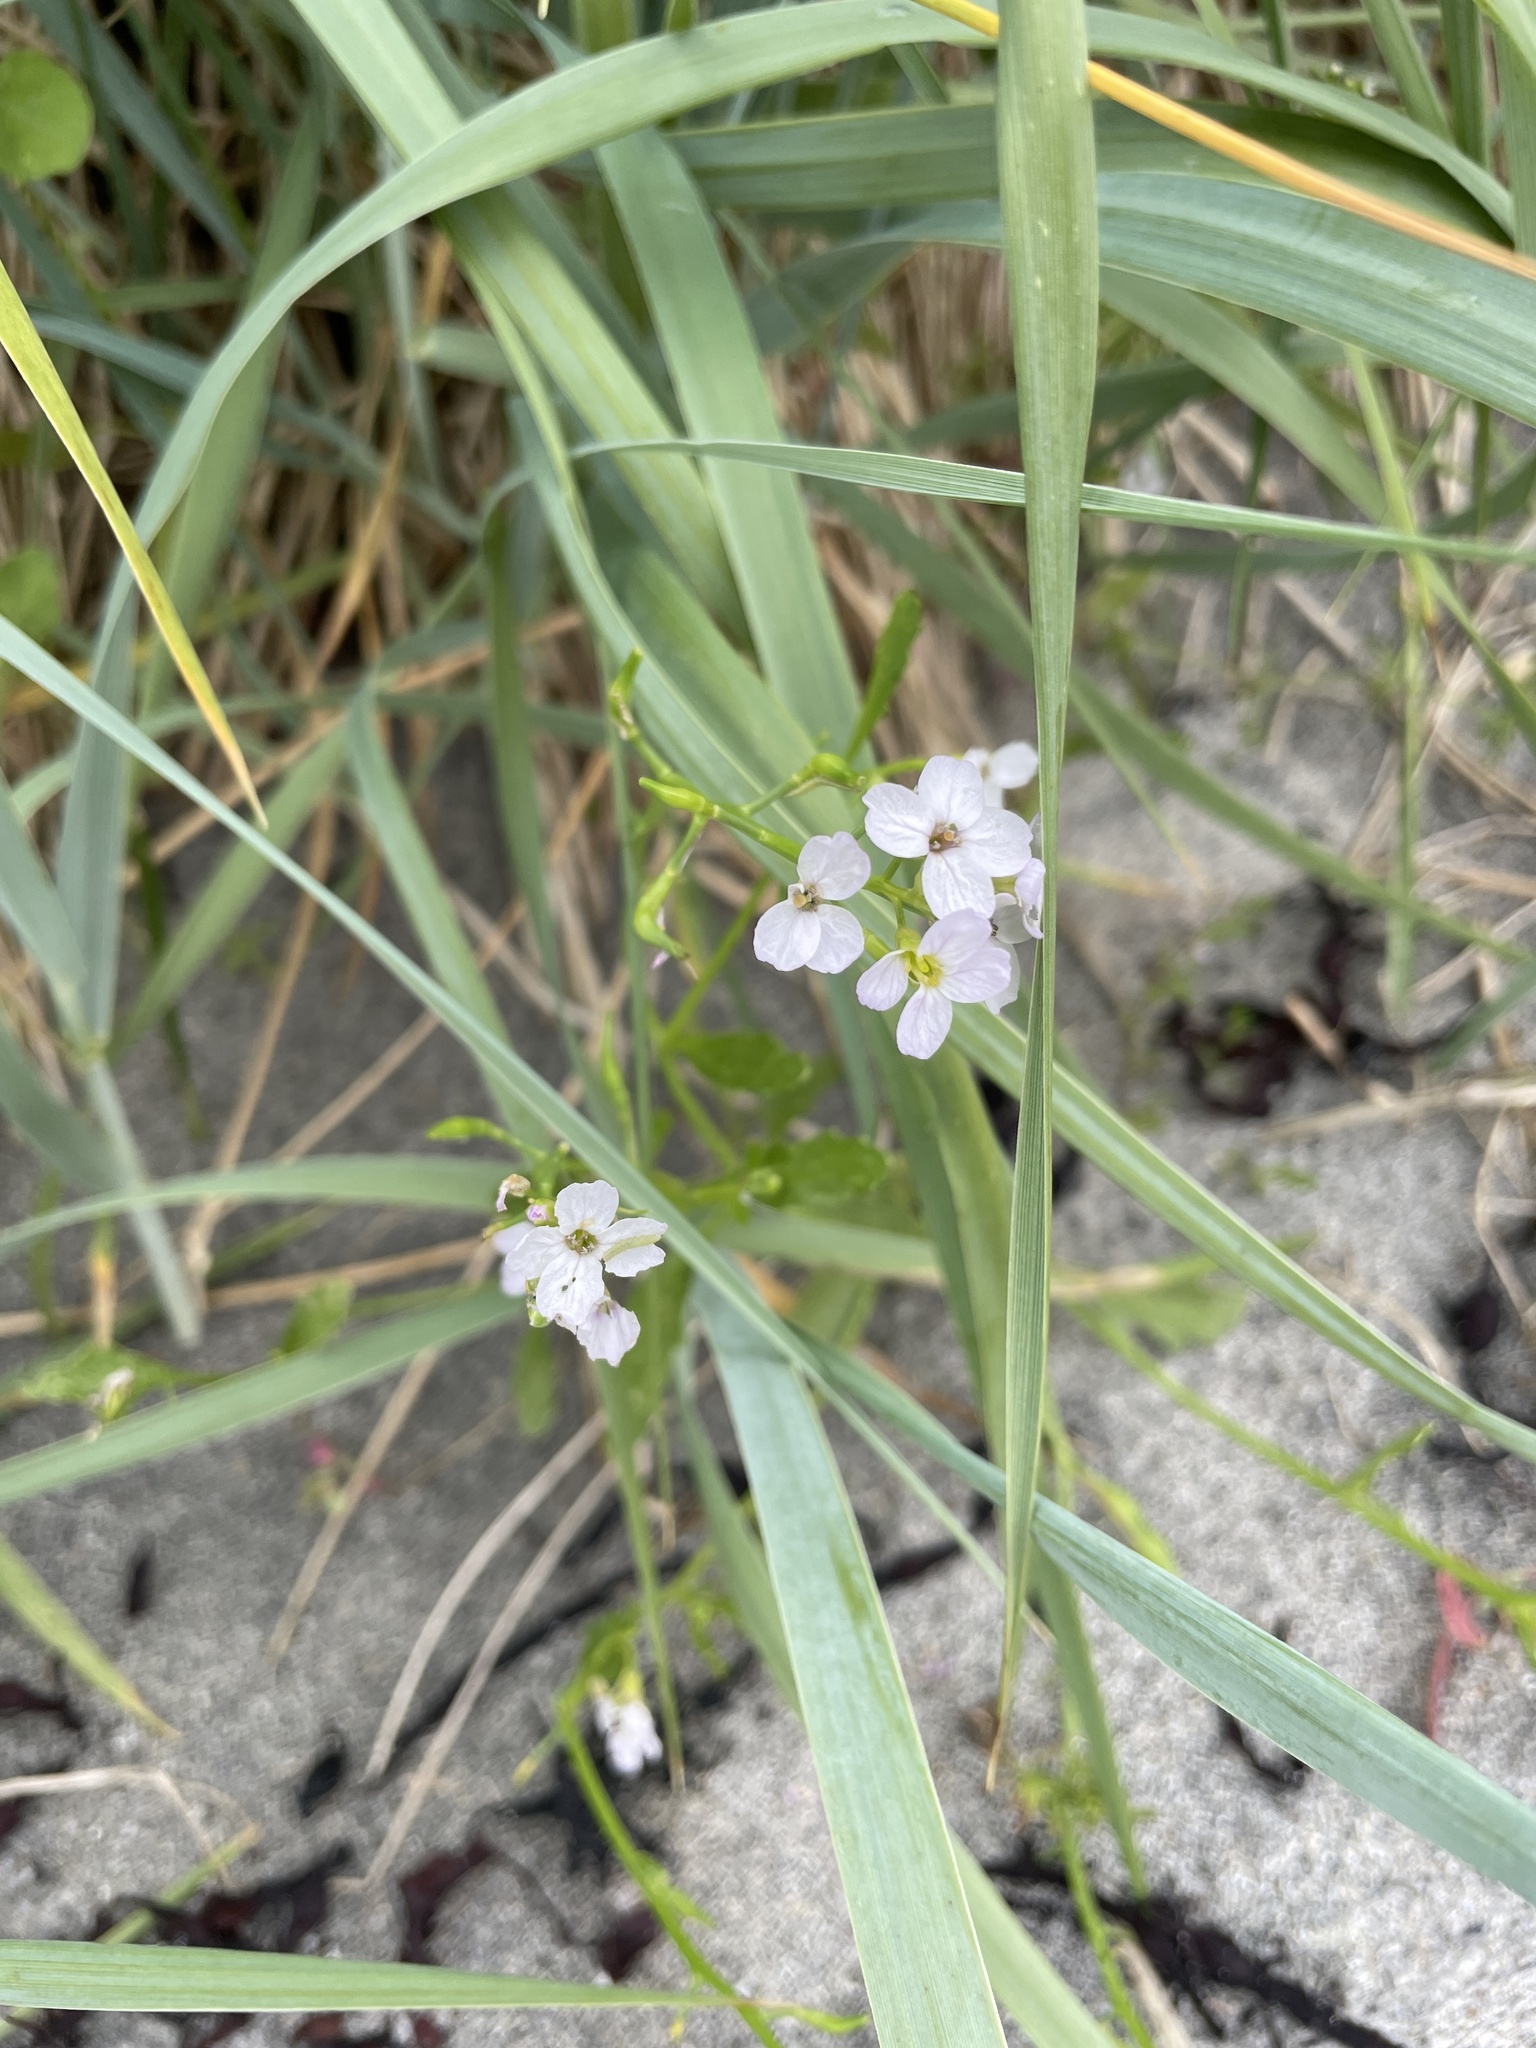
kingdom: Plantae
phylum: Tracheophyta
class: Magnoliopsida
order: Brassicales
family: Brassicaceae
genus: Cakile
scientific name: Cakile maritima
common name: Sea rocket
